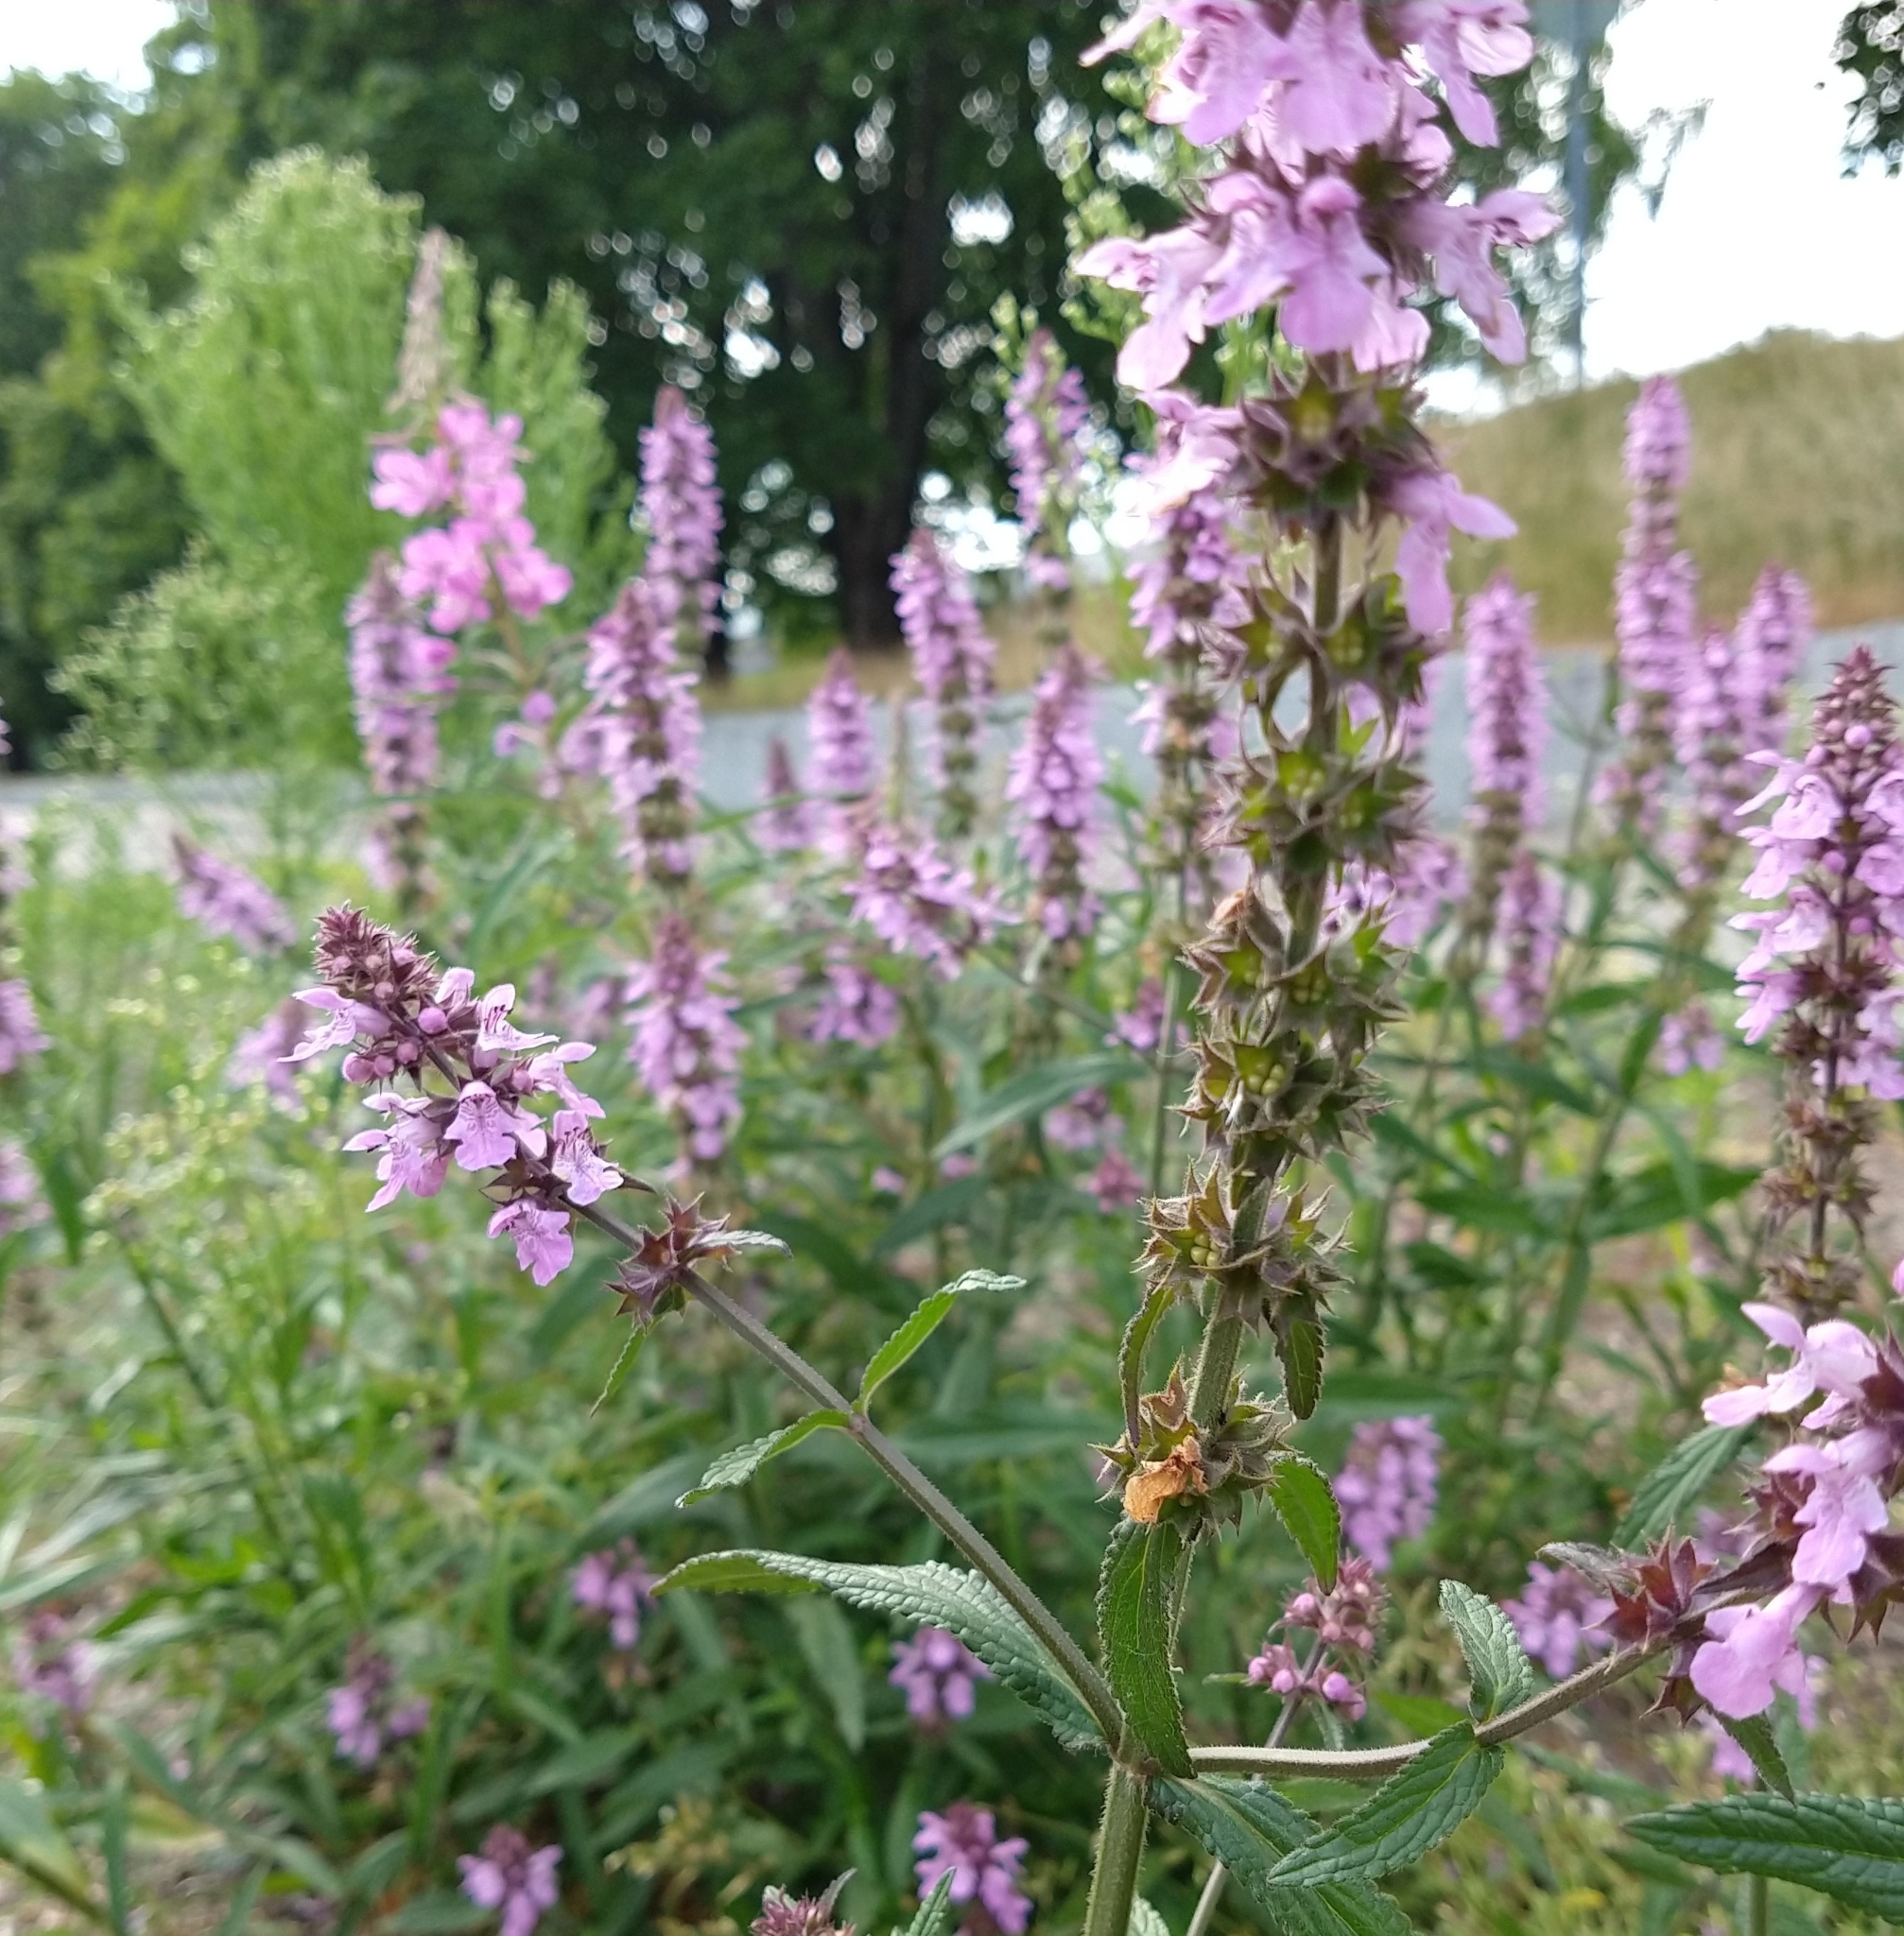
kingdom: Plantae
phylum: Tracheophyta
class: Magnoliopsida
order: Lamiales
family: Lamiaceae
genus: Stachys
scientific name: Stachys palustris
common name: Marsh woundwort
